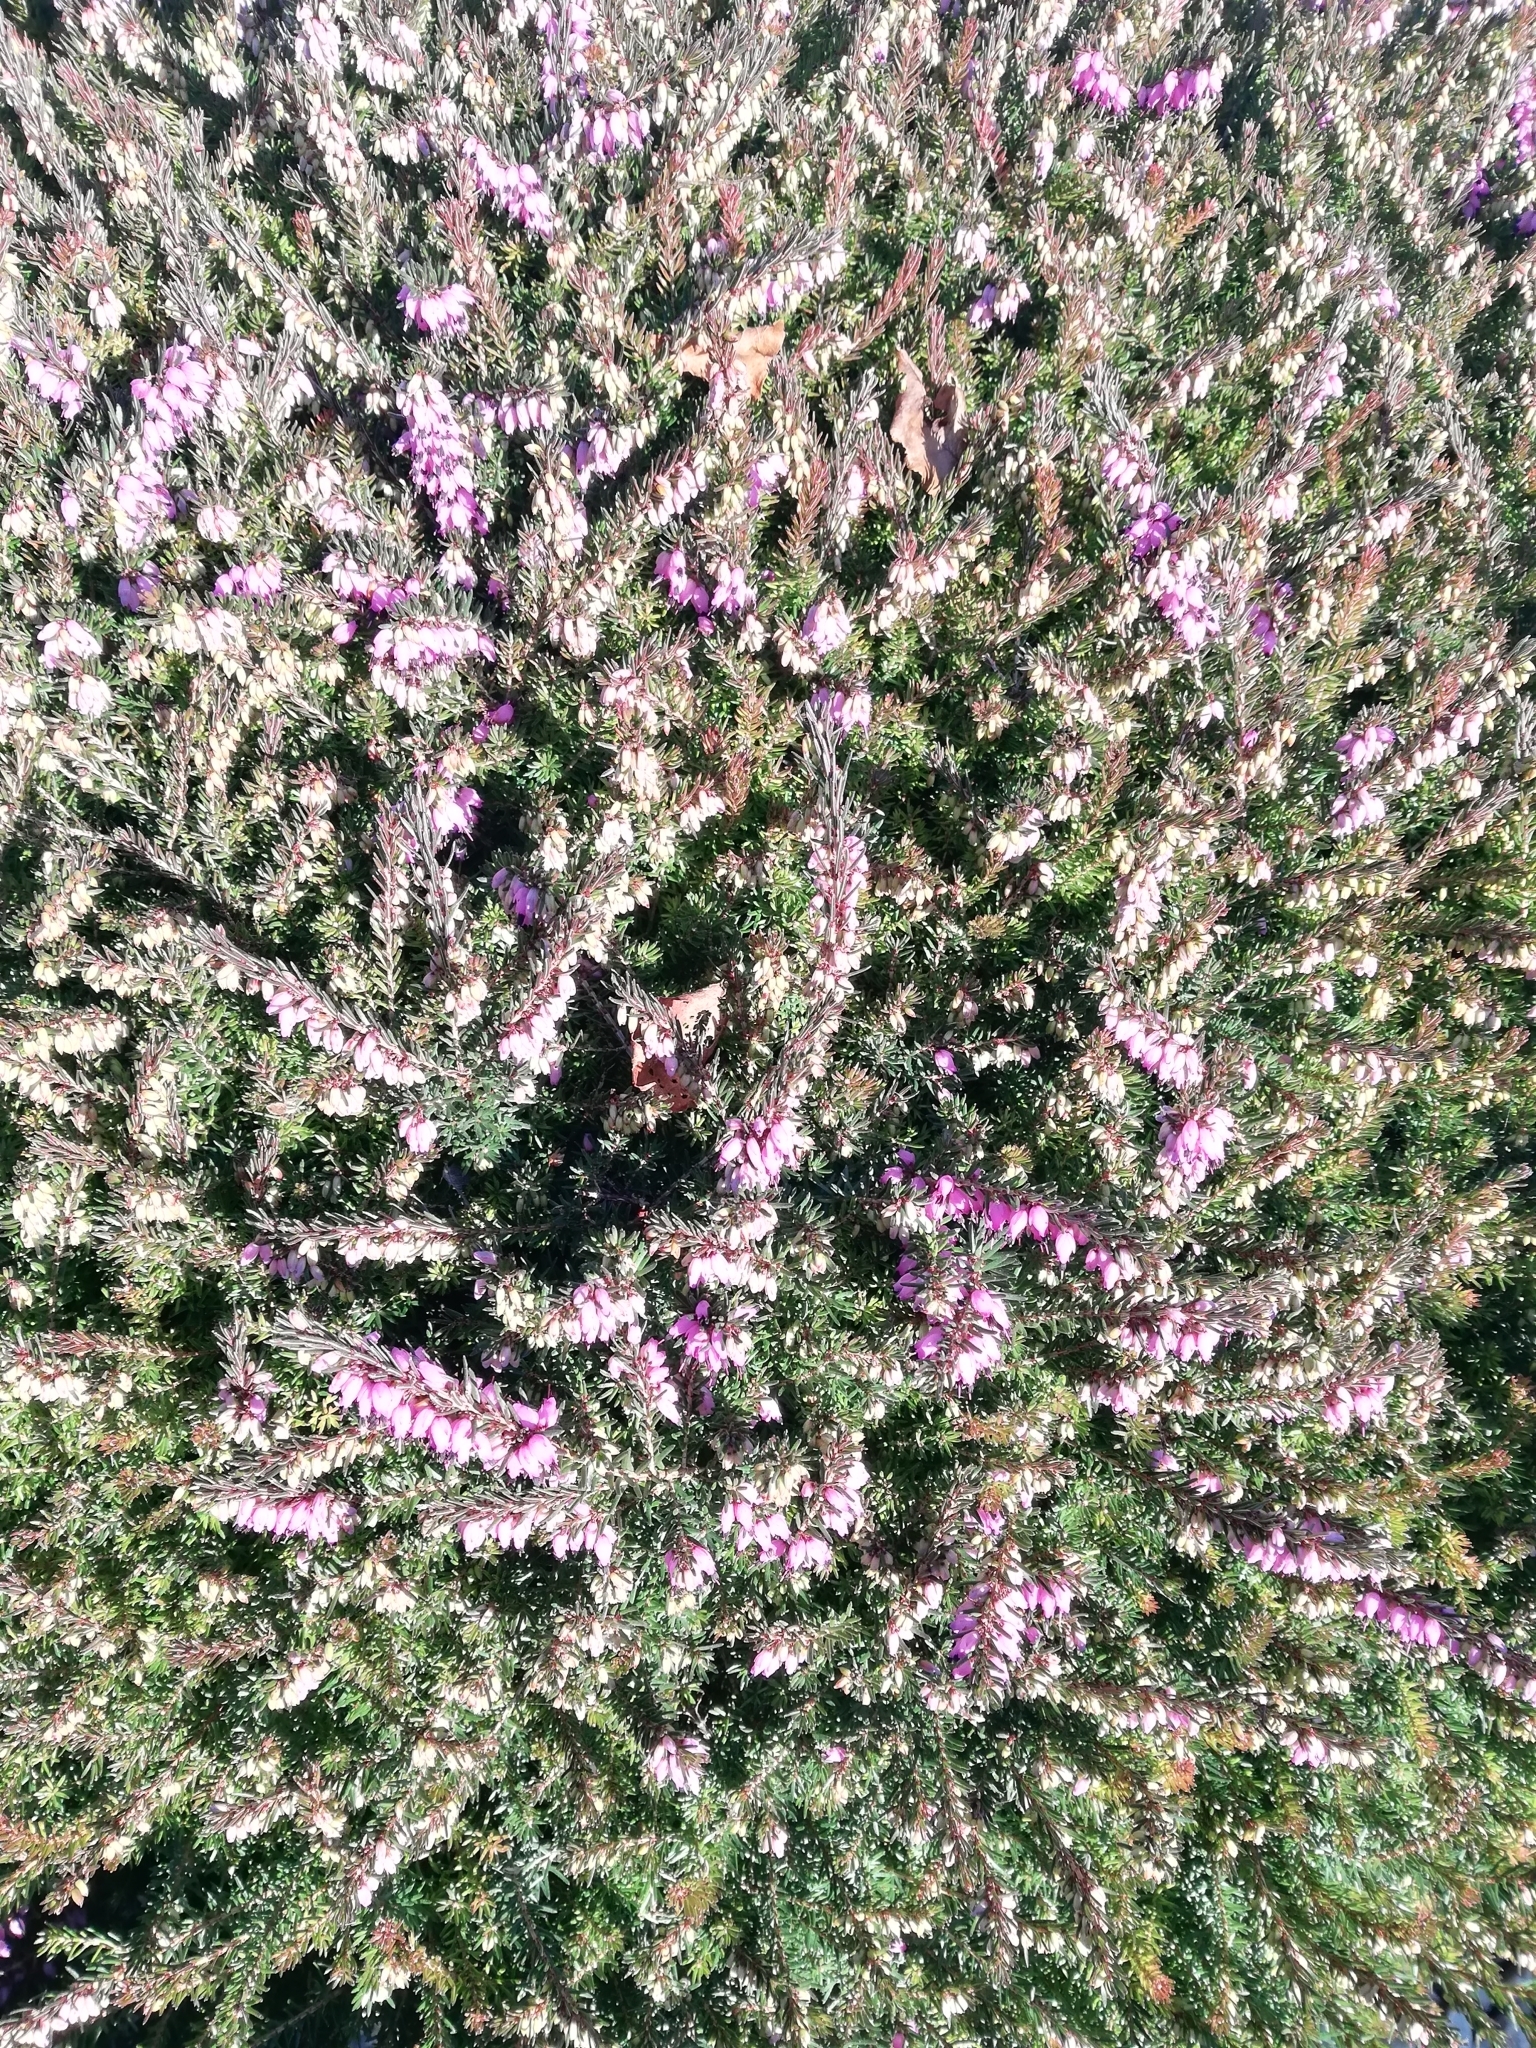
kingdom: Plantae
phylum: Tracheophyta
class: Magnoliopsida
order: Ericales
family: Ericaceae
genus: Erica
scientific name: Erica carnea
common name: Winter heath
